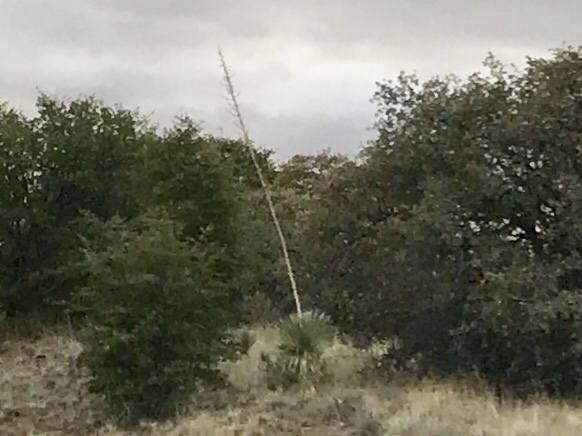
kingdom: Plantae
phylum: Tracheophyta
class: Liliopsida
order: Asparagales
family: Asparagaceae
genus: Yucca
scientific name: Yucca elata
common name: Palmella
